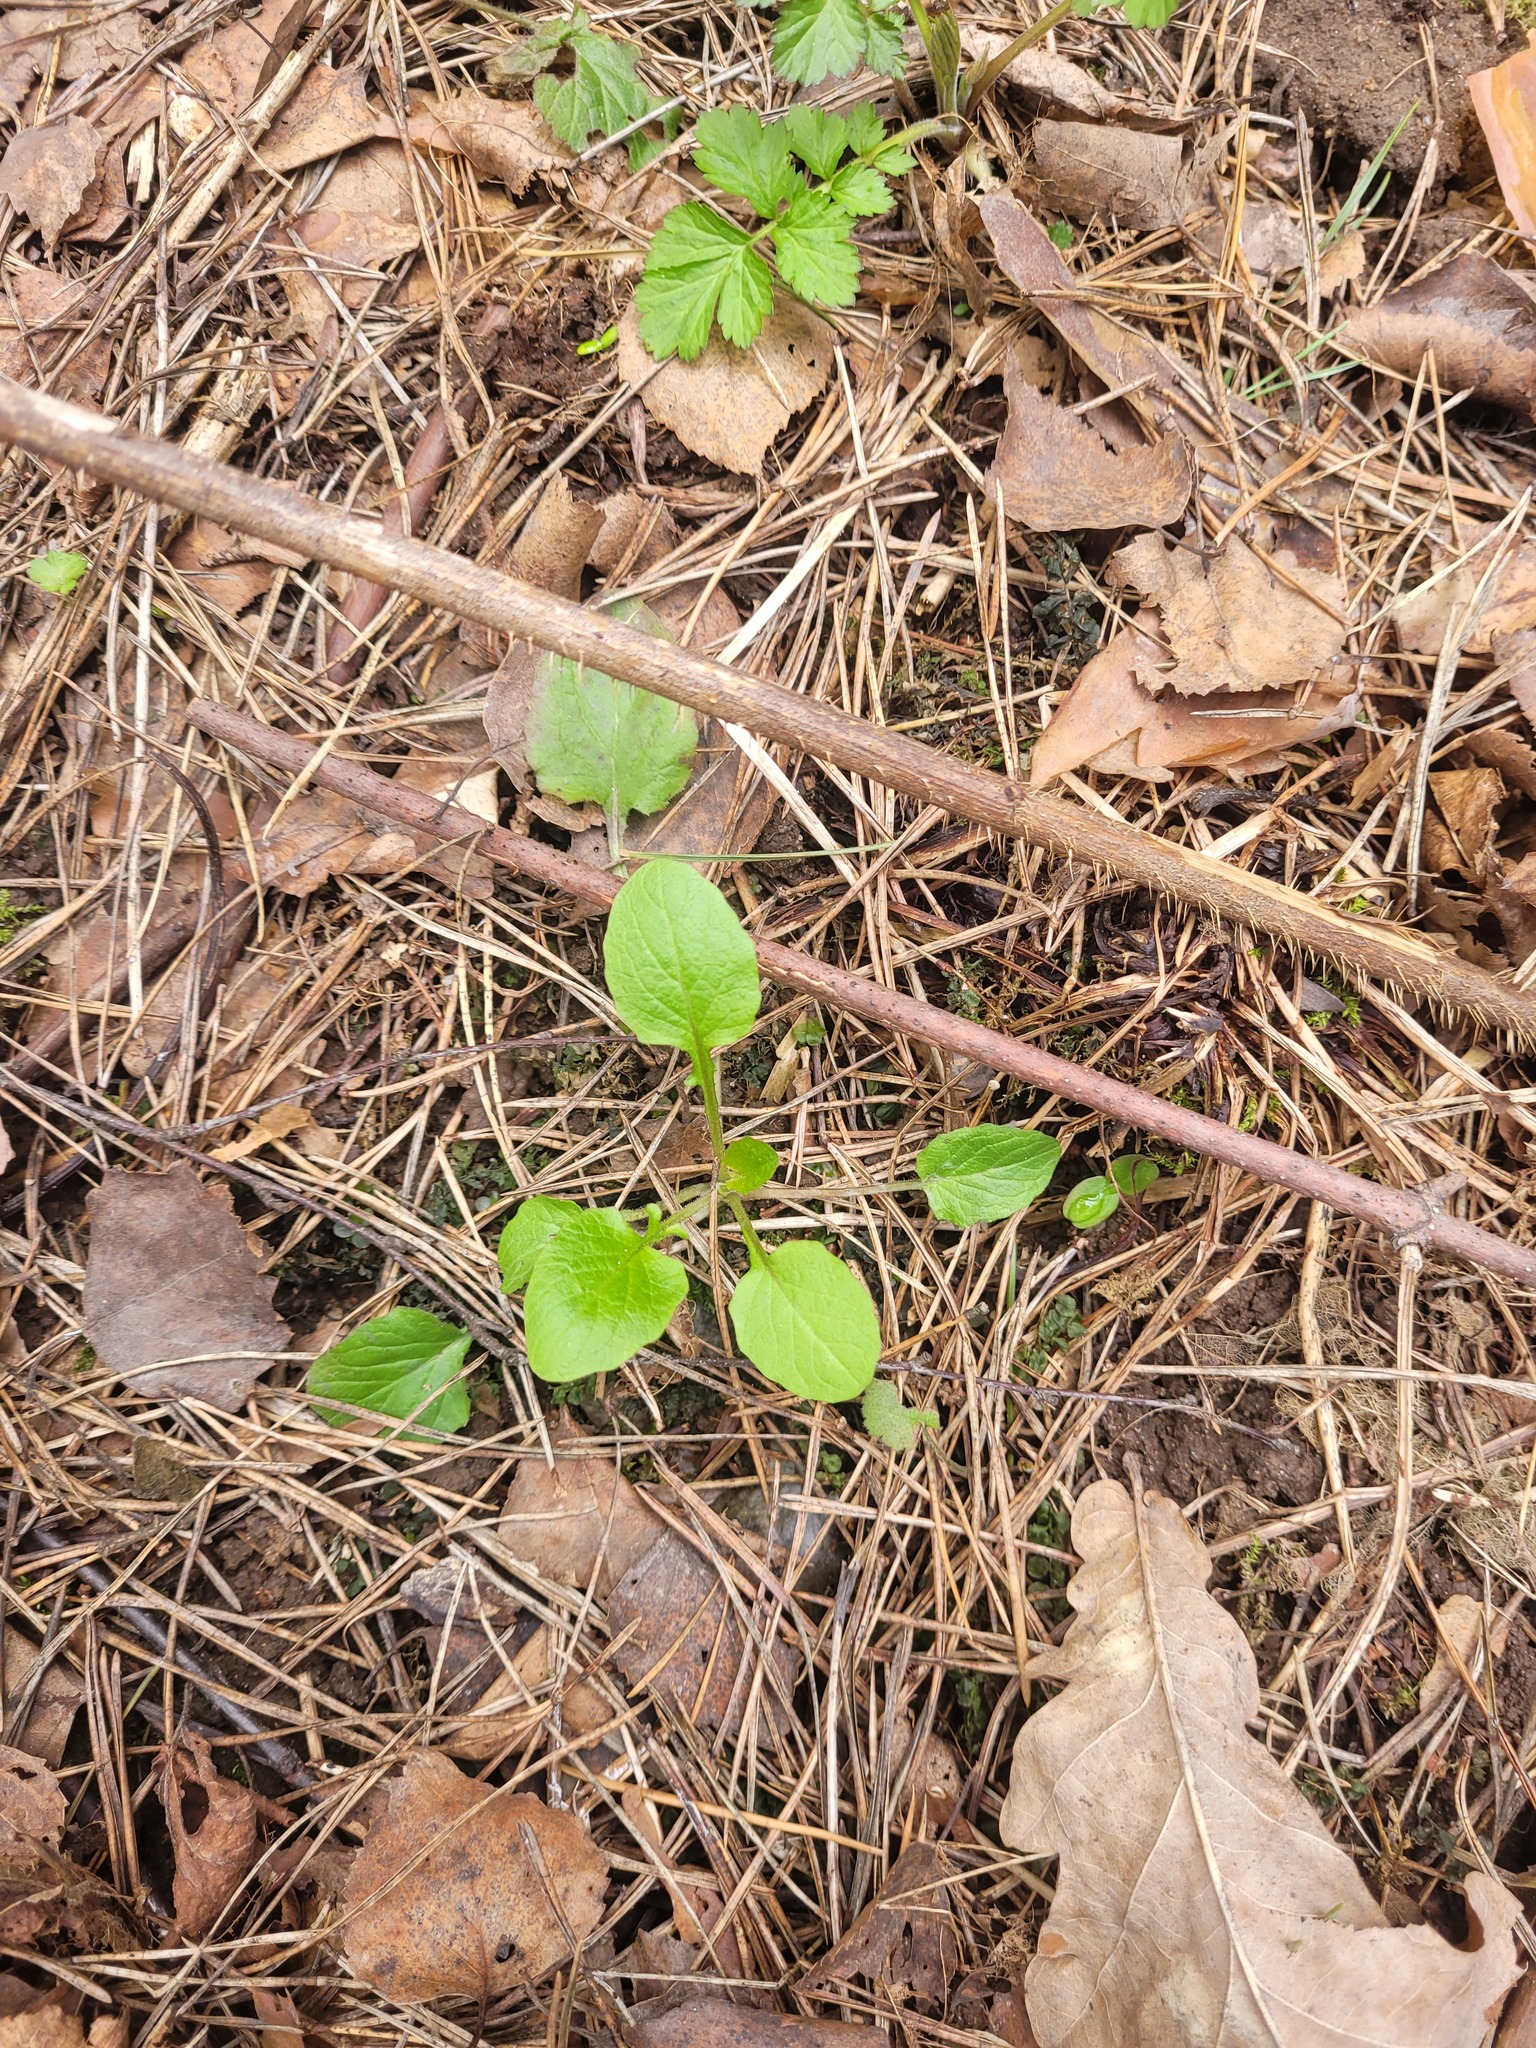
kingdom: Plantae
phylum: Tracheophyta
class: Magnoliopsida
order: Asterales
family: Asteraceae
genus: Lapsana
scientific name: Lapsana communis
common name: Nipplewort
